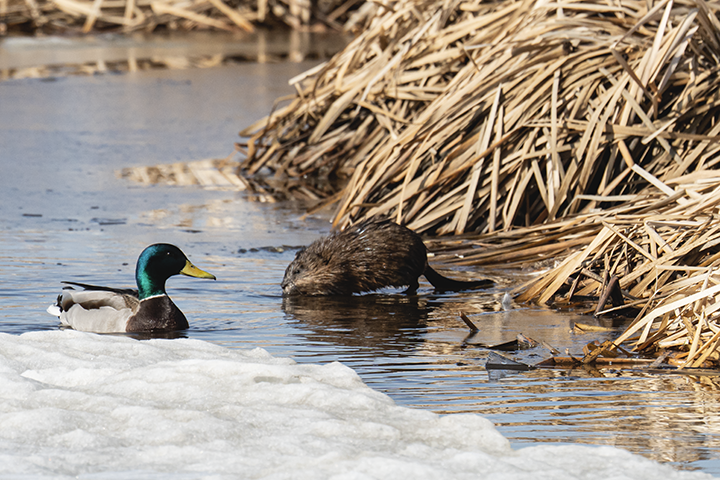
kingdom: Animalia
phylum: Chordata
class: Mammalia
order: Rodentia
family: Cricetidae
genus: Ondatra
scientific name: Ondatra zibethicus
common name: Muskrat
